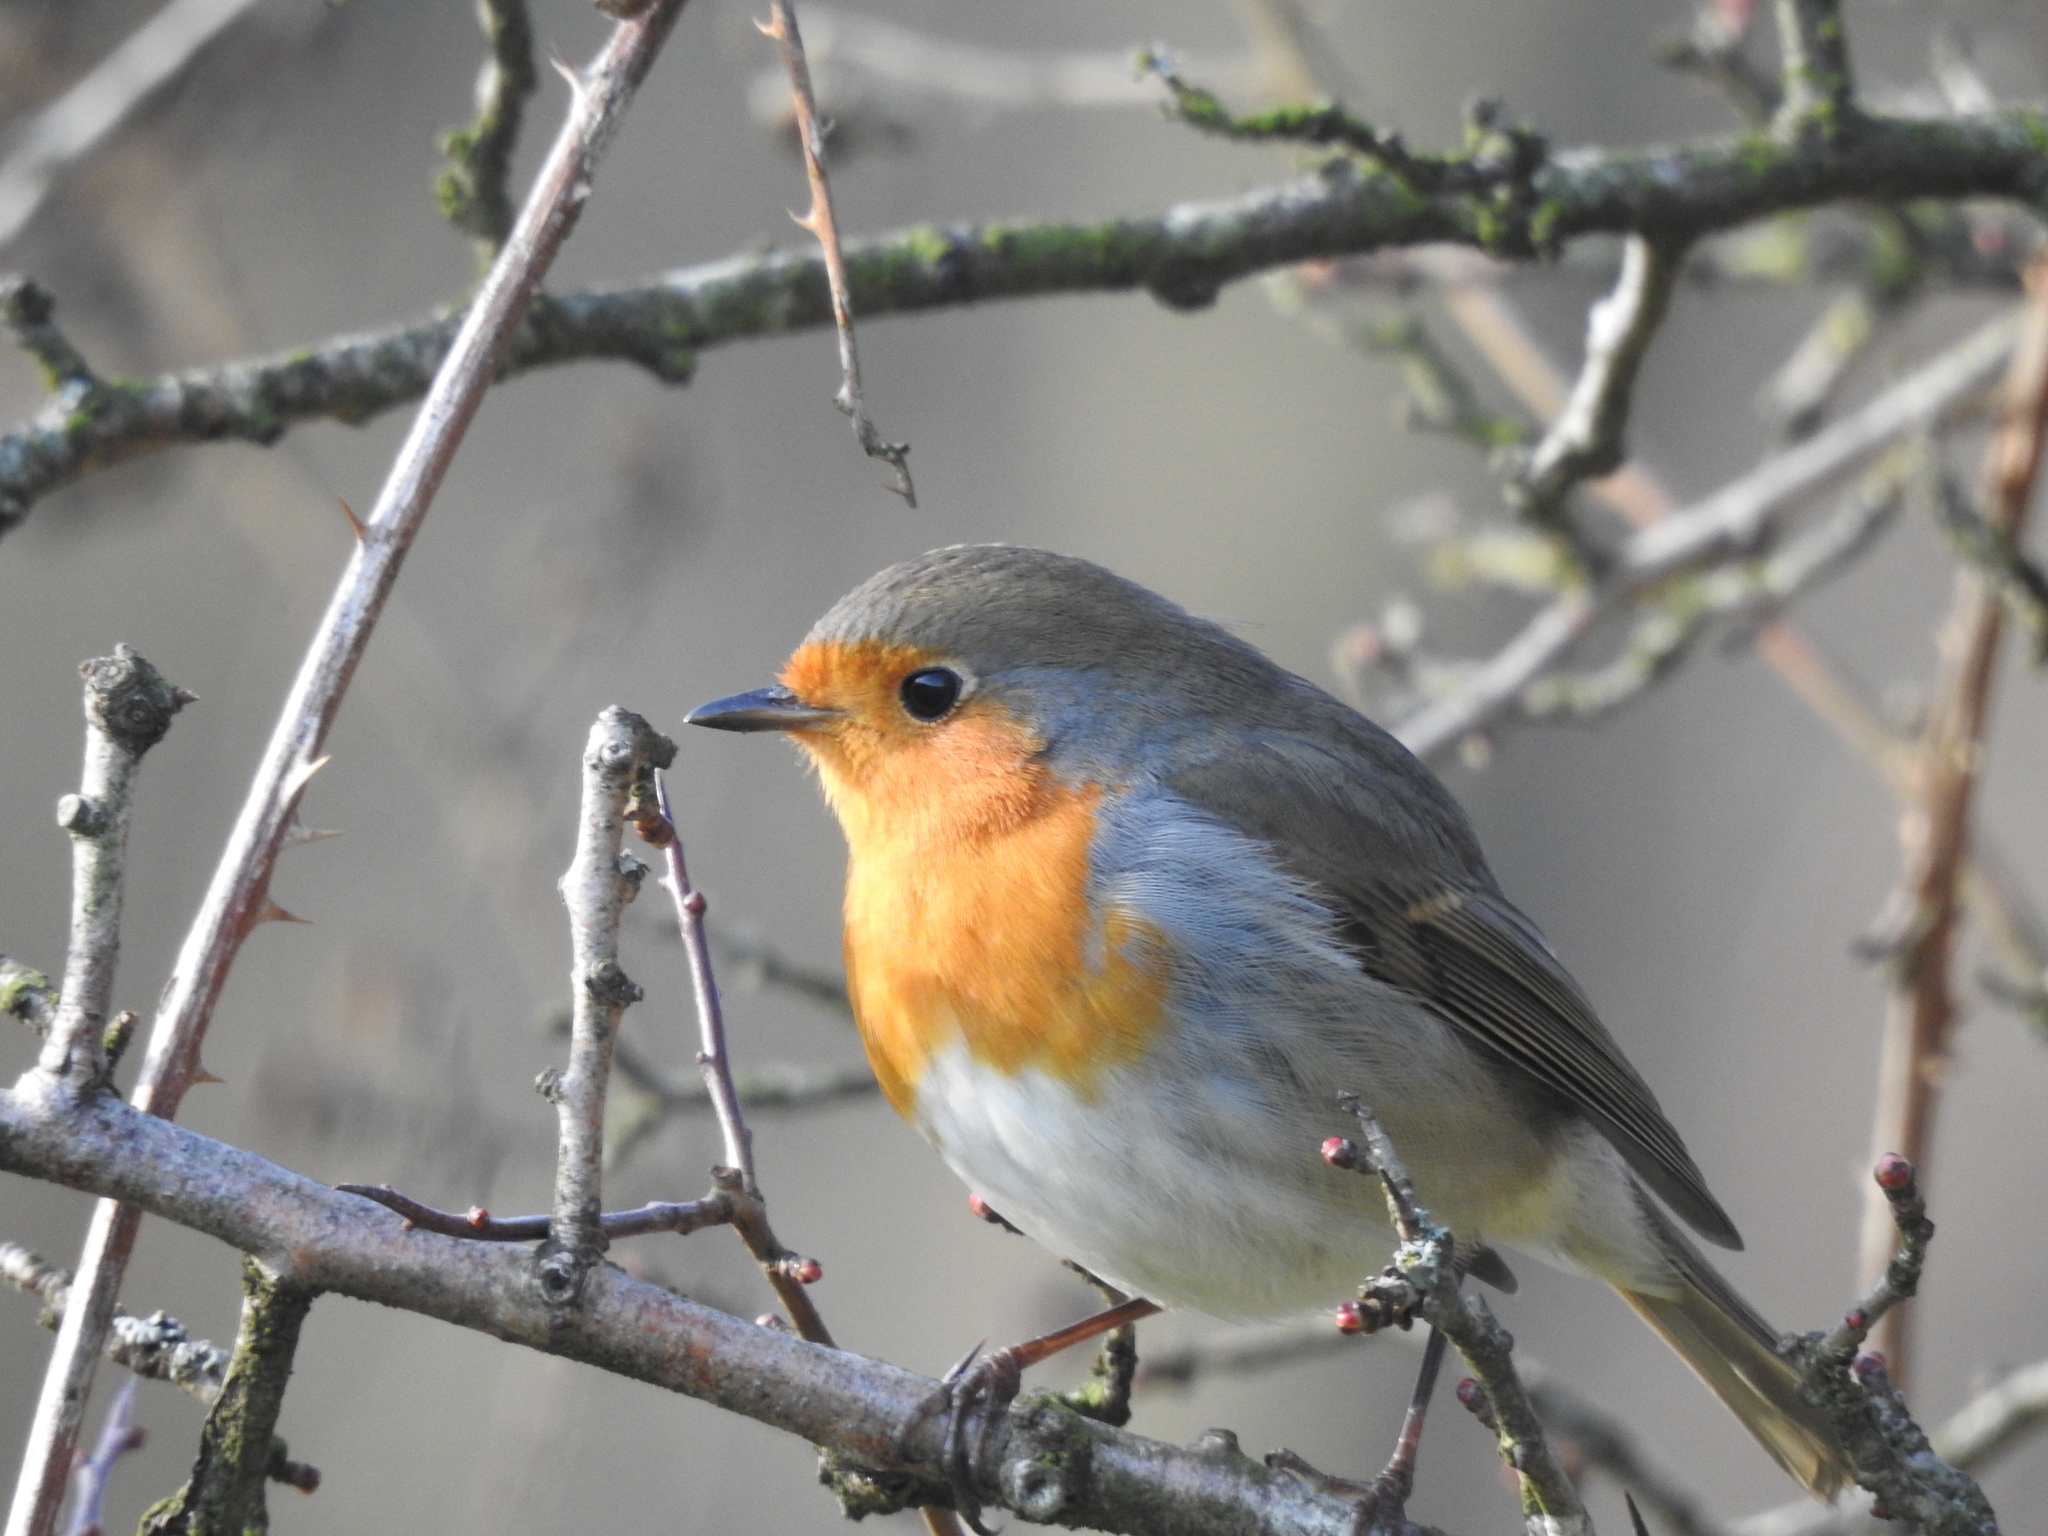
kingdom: Animalia
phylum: Chordata
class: Aves
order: Passeriformes
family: Muscicapidae
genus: Erithacus
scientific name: Erithacus rubecula
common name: European robin
